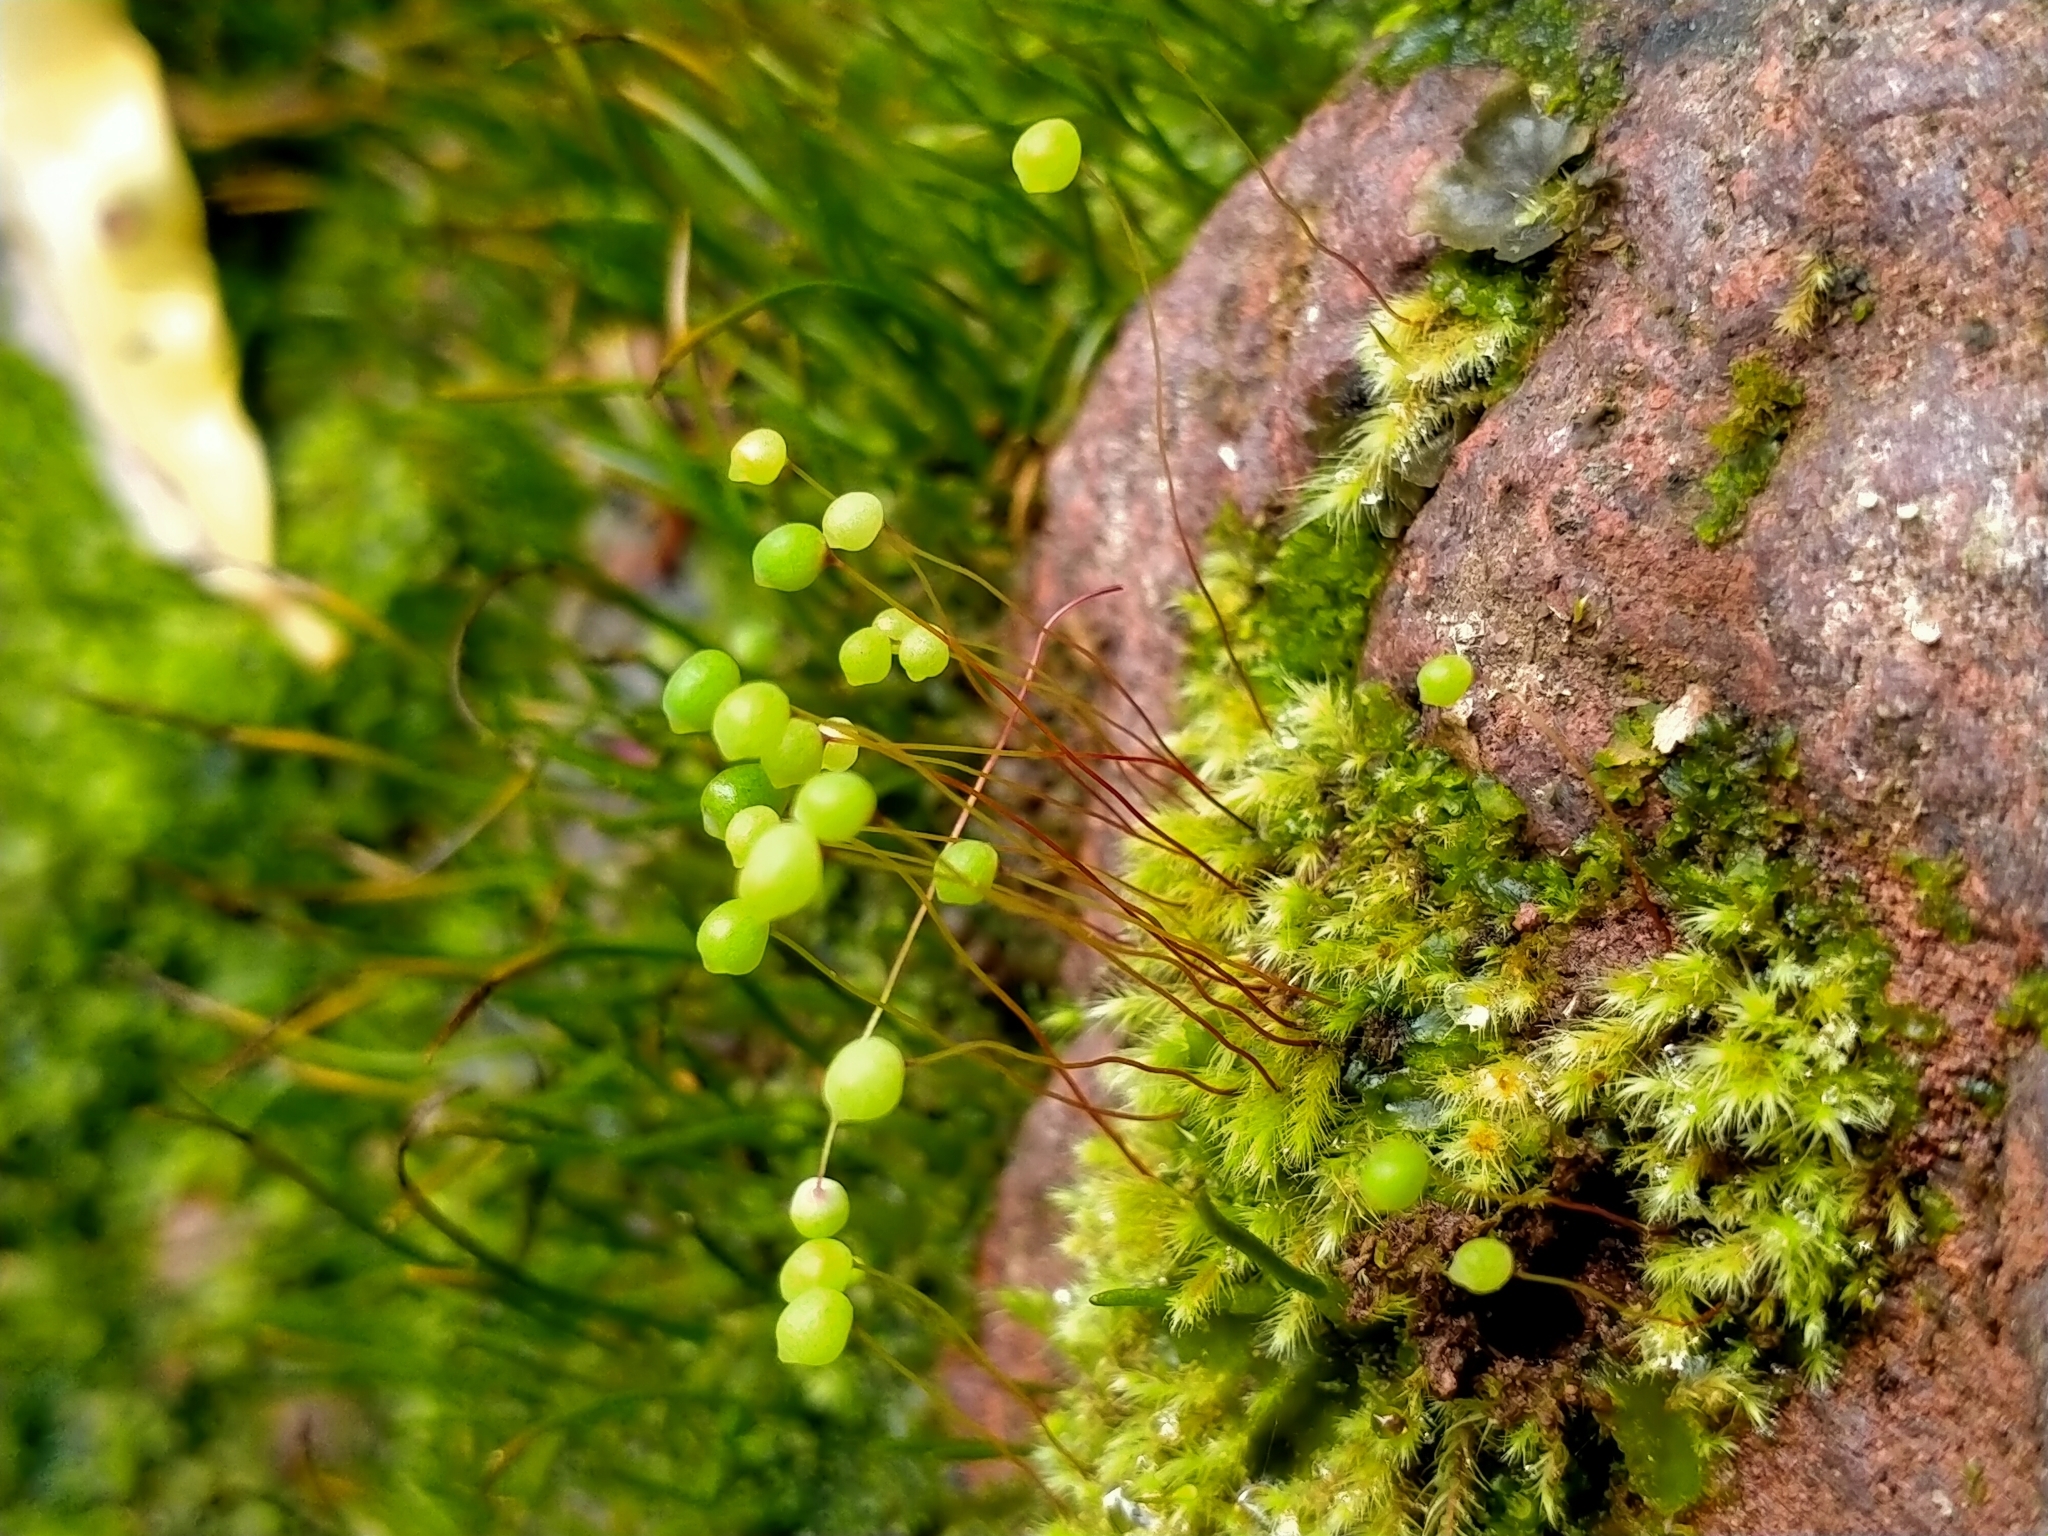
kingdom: Plantae
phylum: Bryophyta
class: Bryopsida
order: Bartramiales
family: Bartramiaceae
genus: Philonotis
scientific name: Philonotis tenuis
